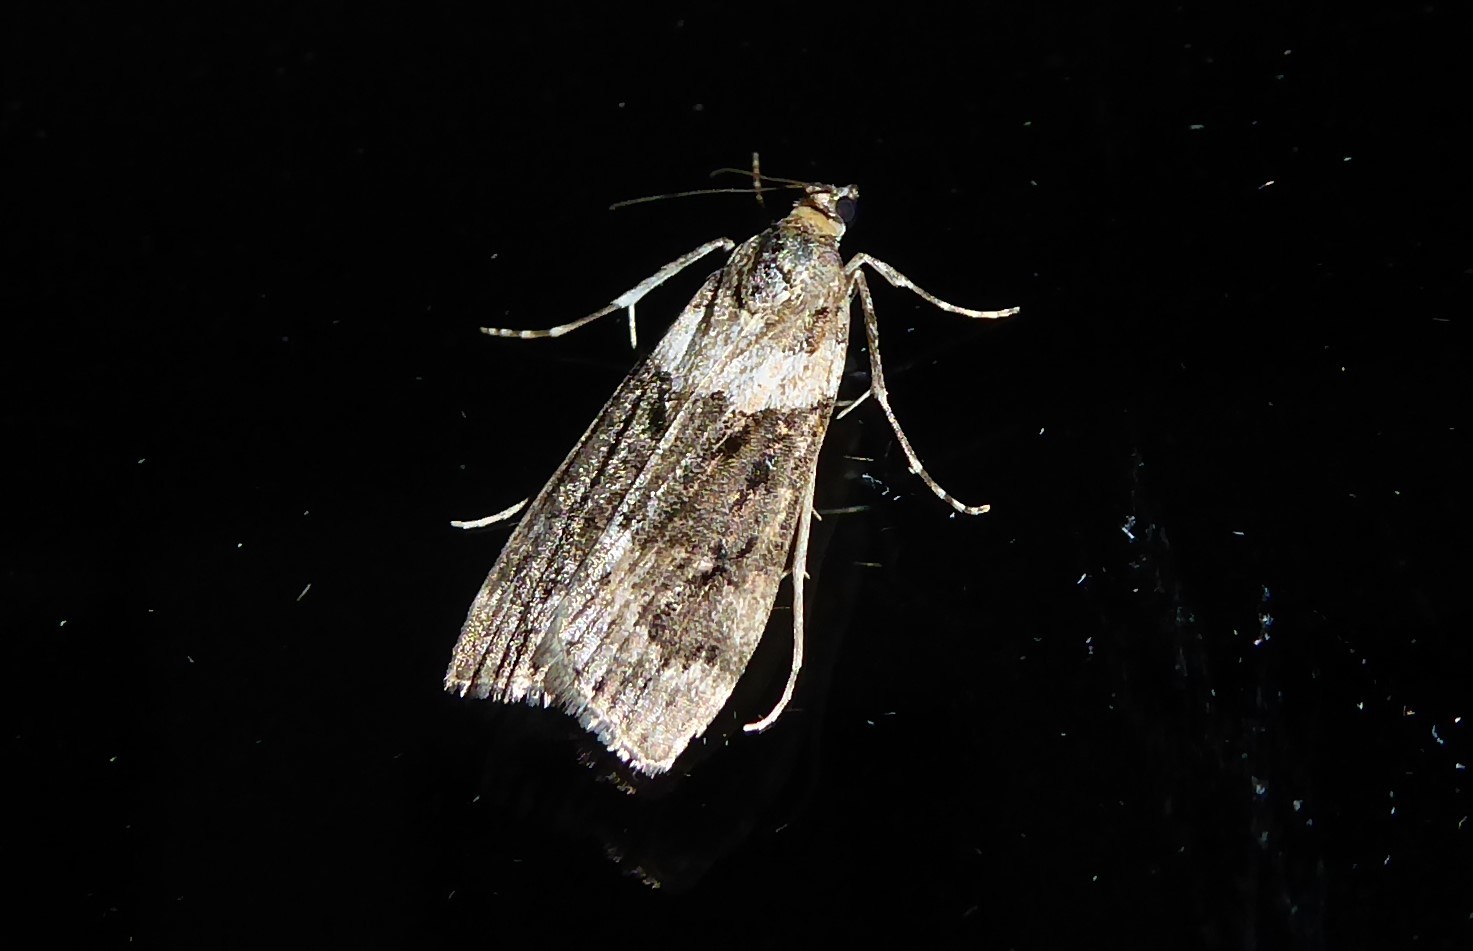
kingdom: Animalia
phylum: Arthropoda
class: Insecta
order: Lepidoptera
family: Crambidae
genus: Eudonia
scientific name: Eudonia submarginalis
